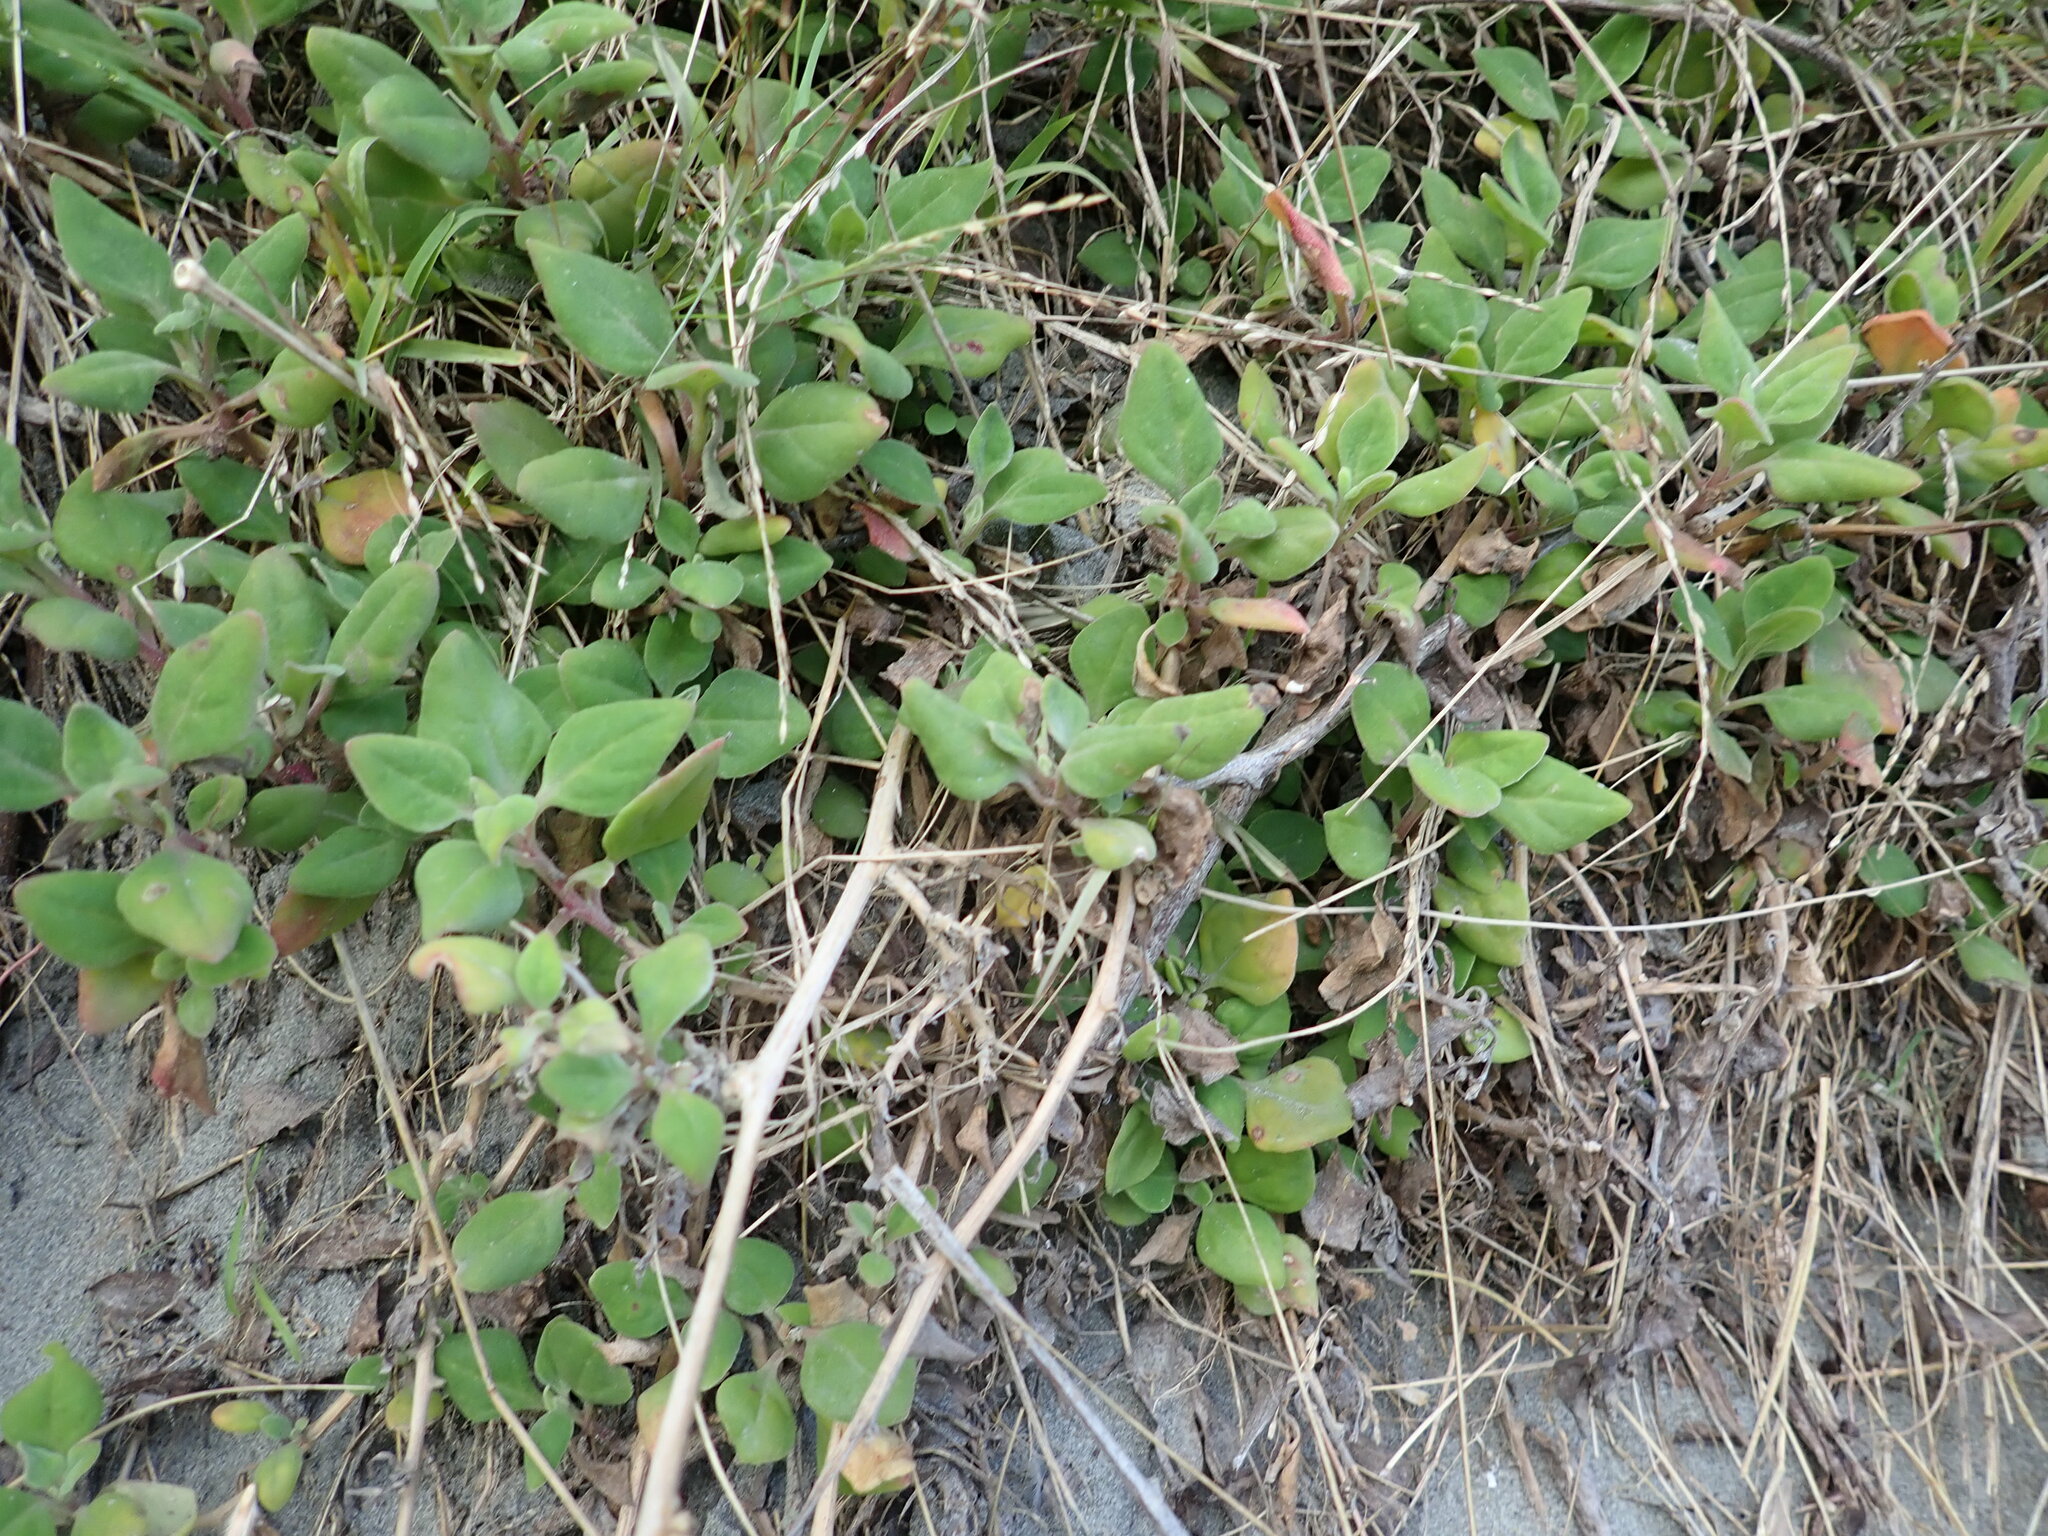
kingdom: Plantae
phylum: Tracheophyta
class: Magnoliopsida
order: Caryophyllales
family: Aizoaceae
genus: Tetragonia
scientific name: Tetragonia implexicoma
